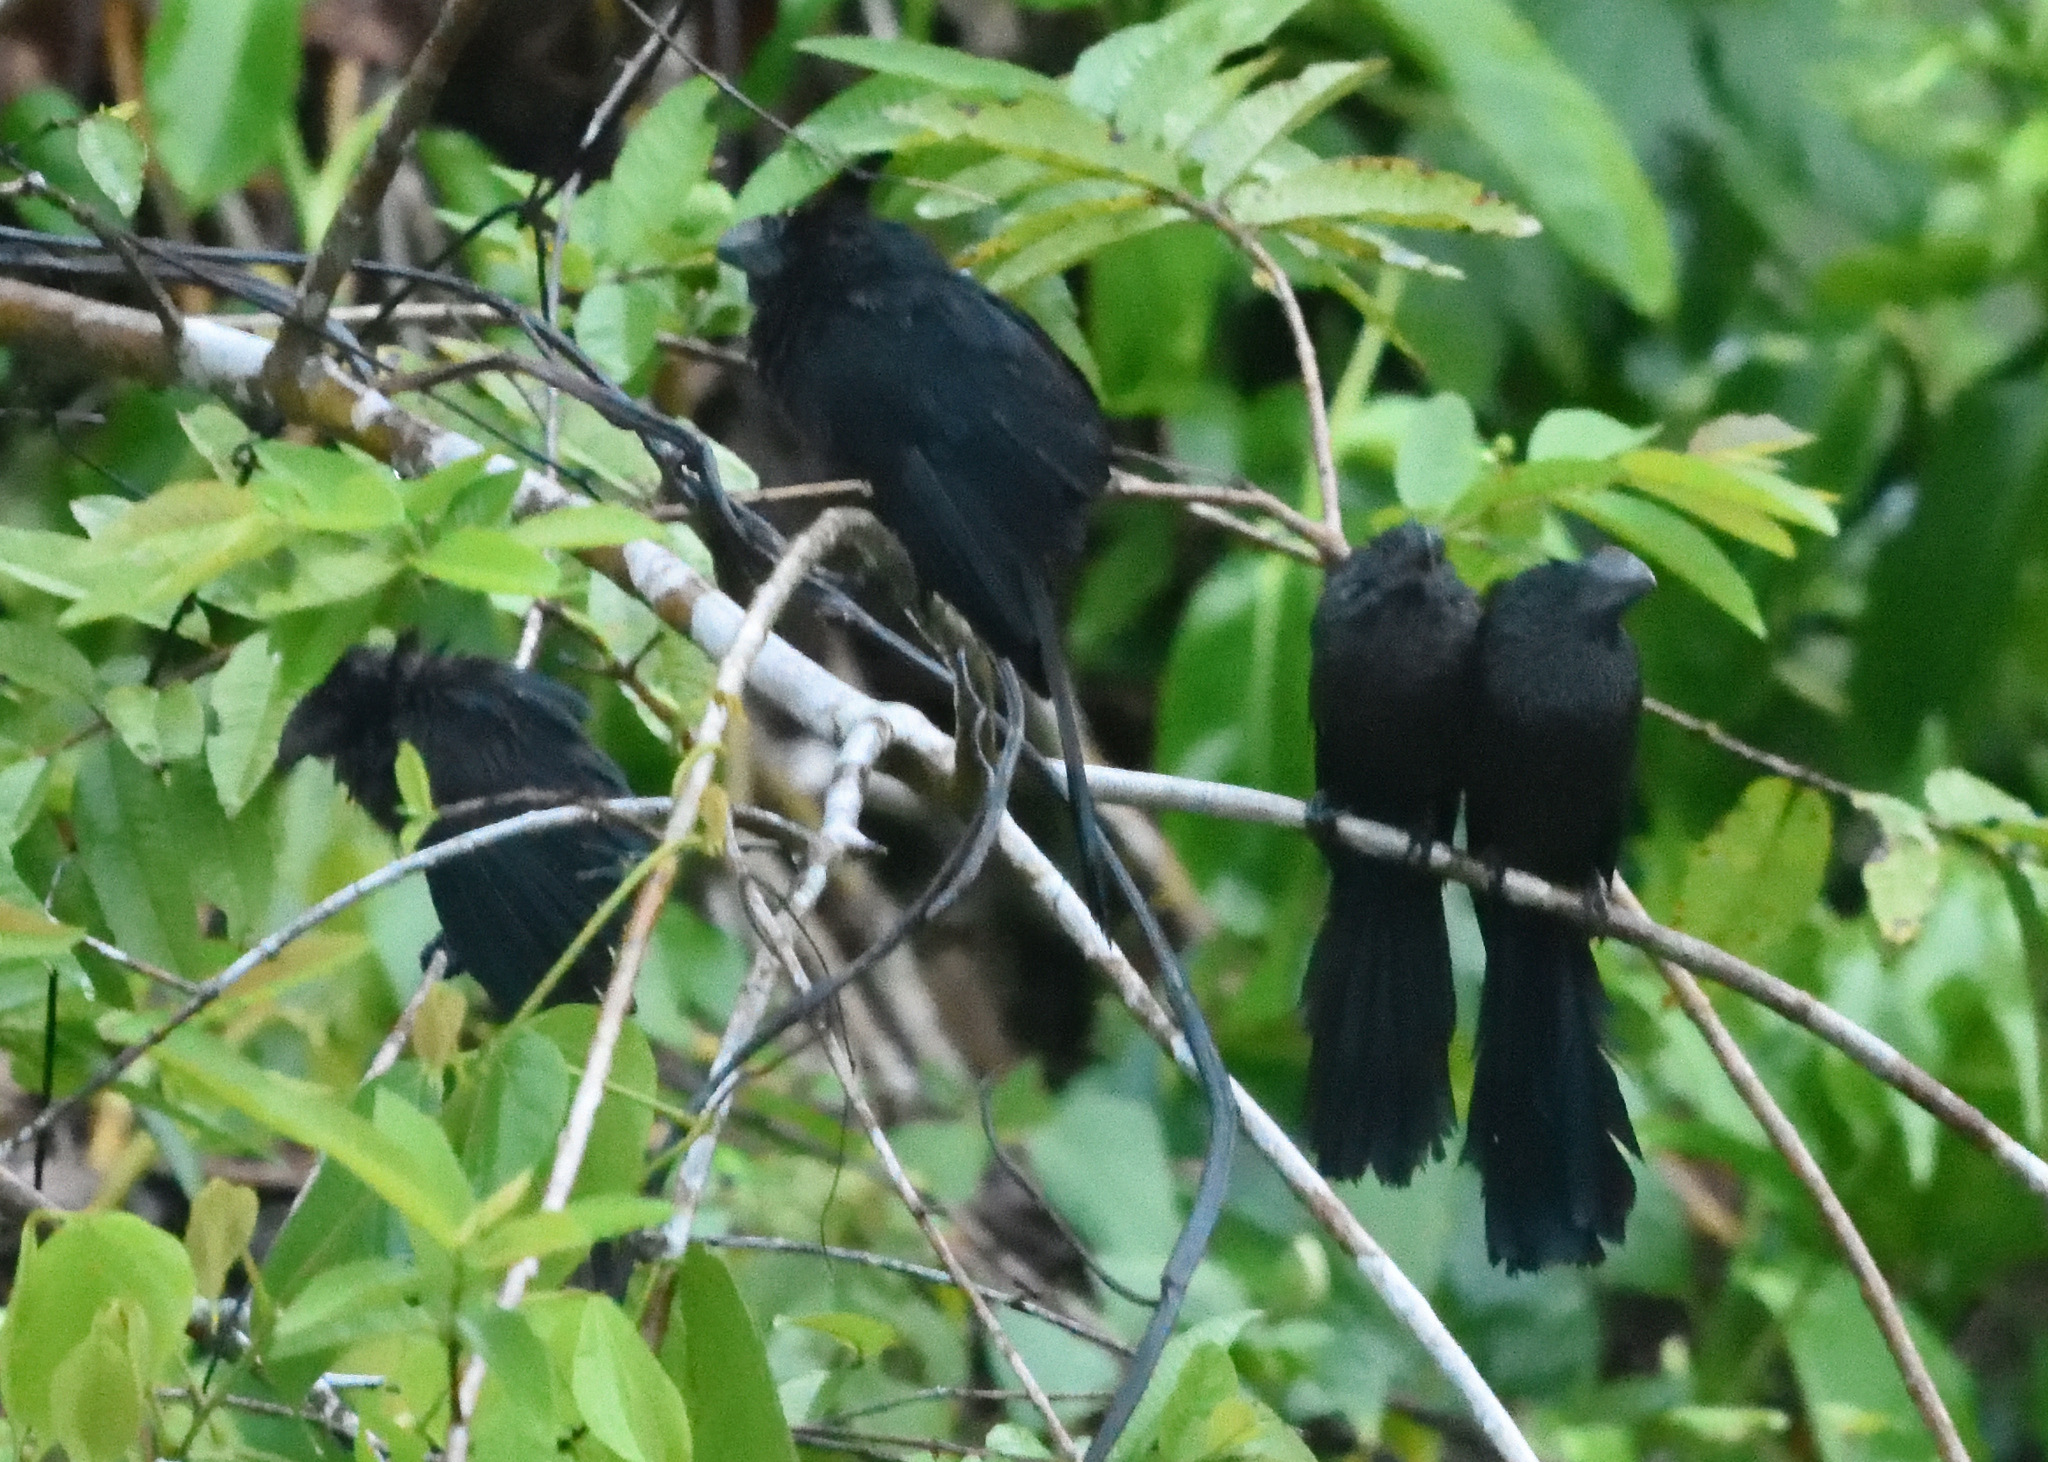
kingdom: Animalia
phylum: Chordata
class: Aves
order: Cuculiformes
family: Cuculidae
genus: Crotophaga
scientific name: Crotophaga ani
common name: Smooth-billed ani
